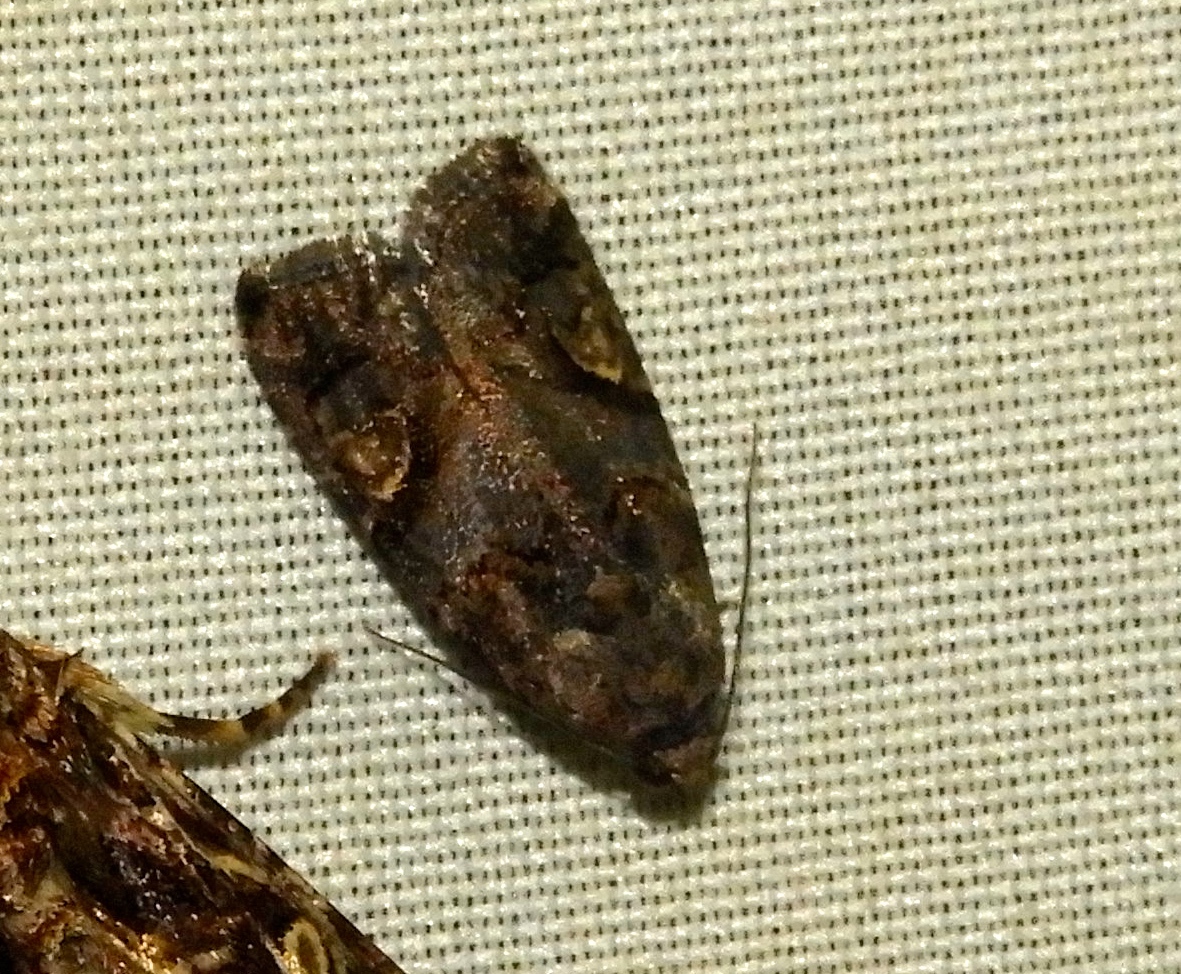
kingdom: Animalia
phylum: Arthropoda
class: Insecta
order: Lepidoptera
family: Noctuidae
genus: Metaponpneumata
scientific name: Metaponpneumata rogenhoferi
